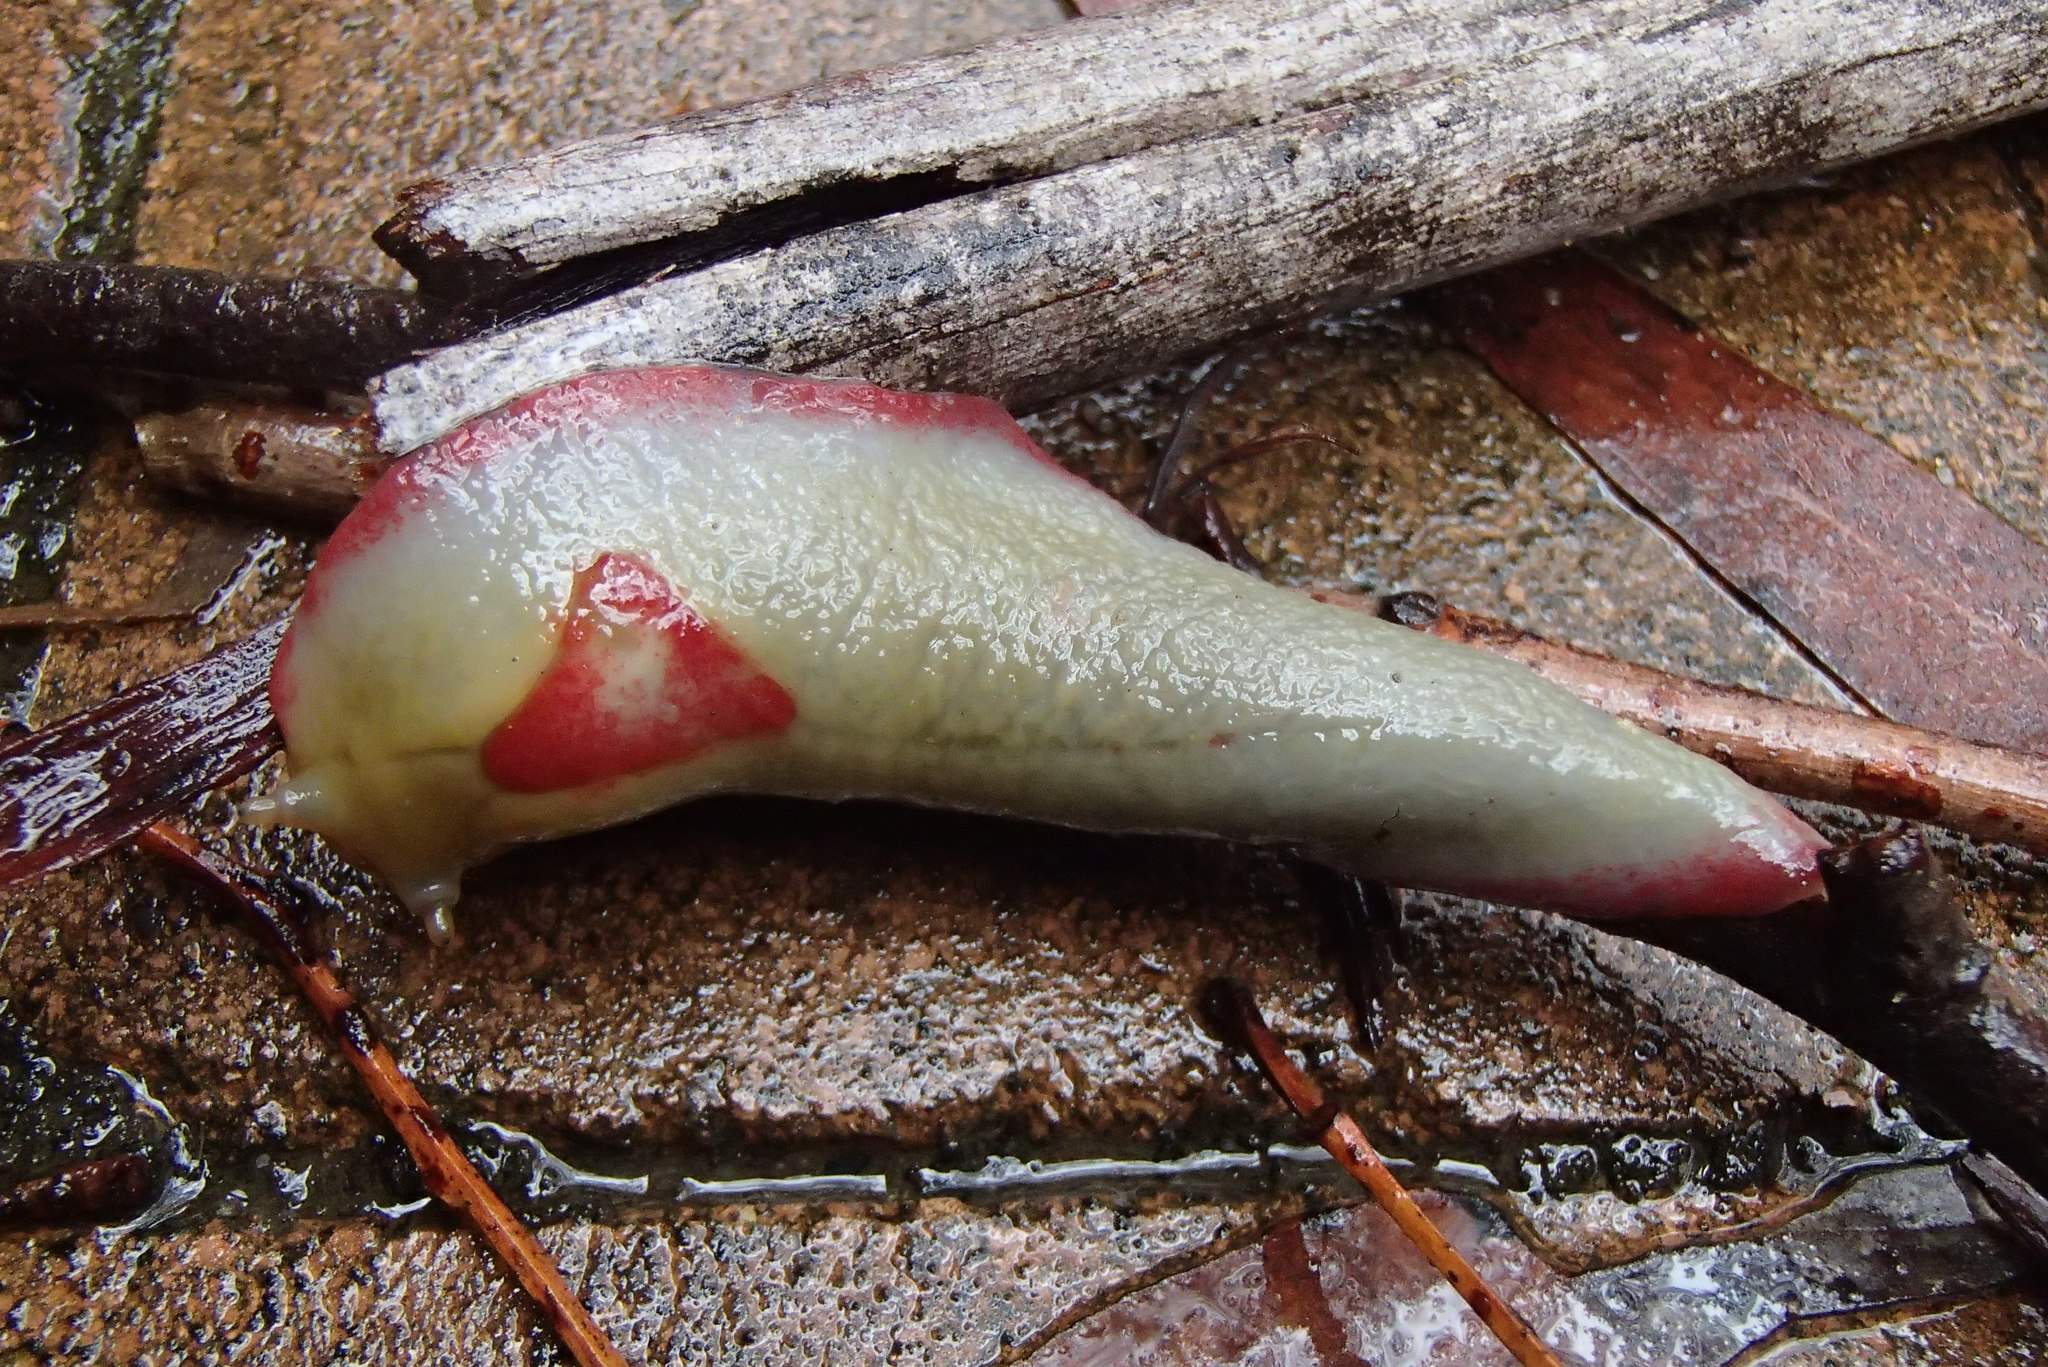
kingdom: Animalia
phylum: Mollusca
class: Gastropoda
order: Stylommatophora
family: Athoracophoridae
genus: Triboniophorus
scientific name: Triboniophorus graeffei
